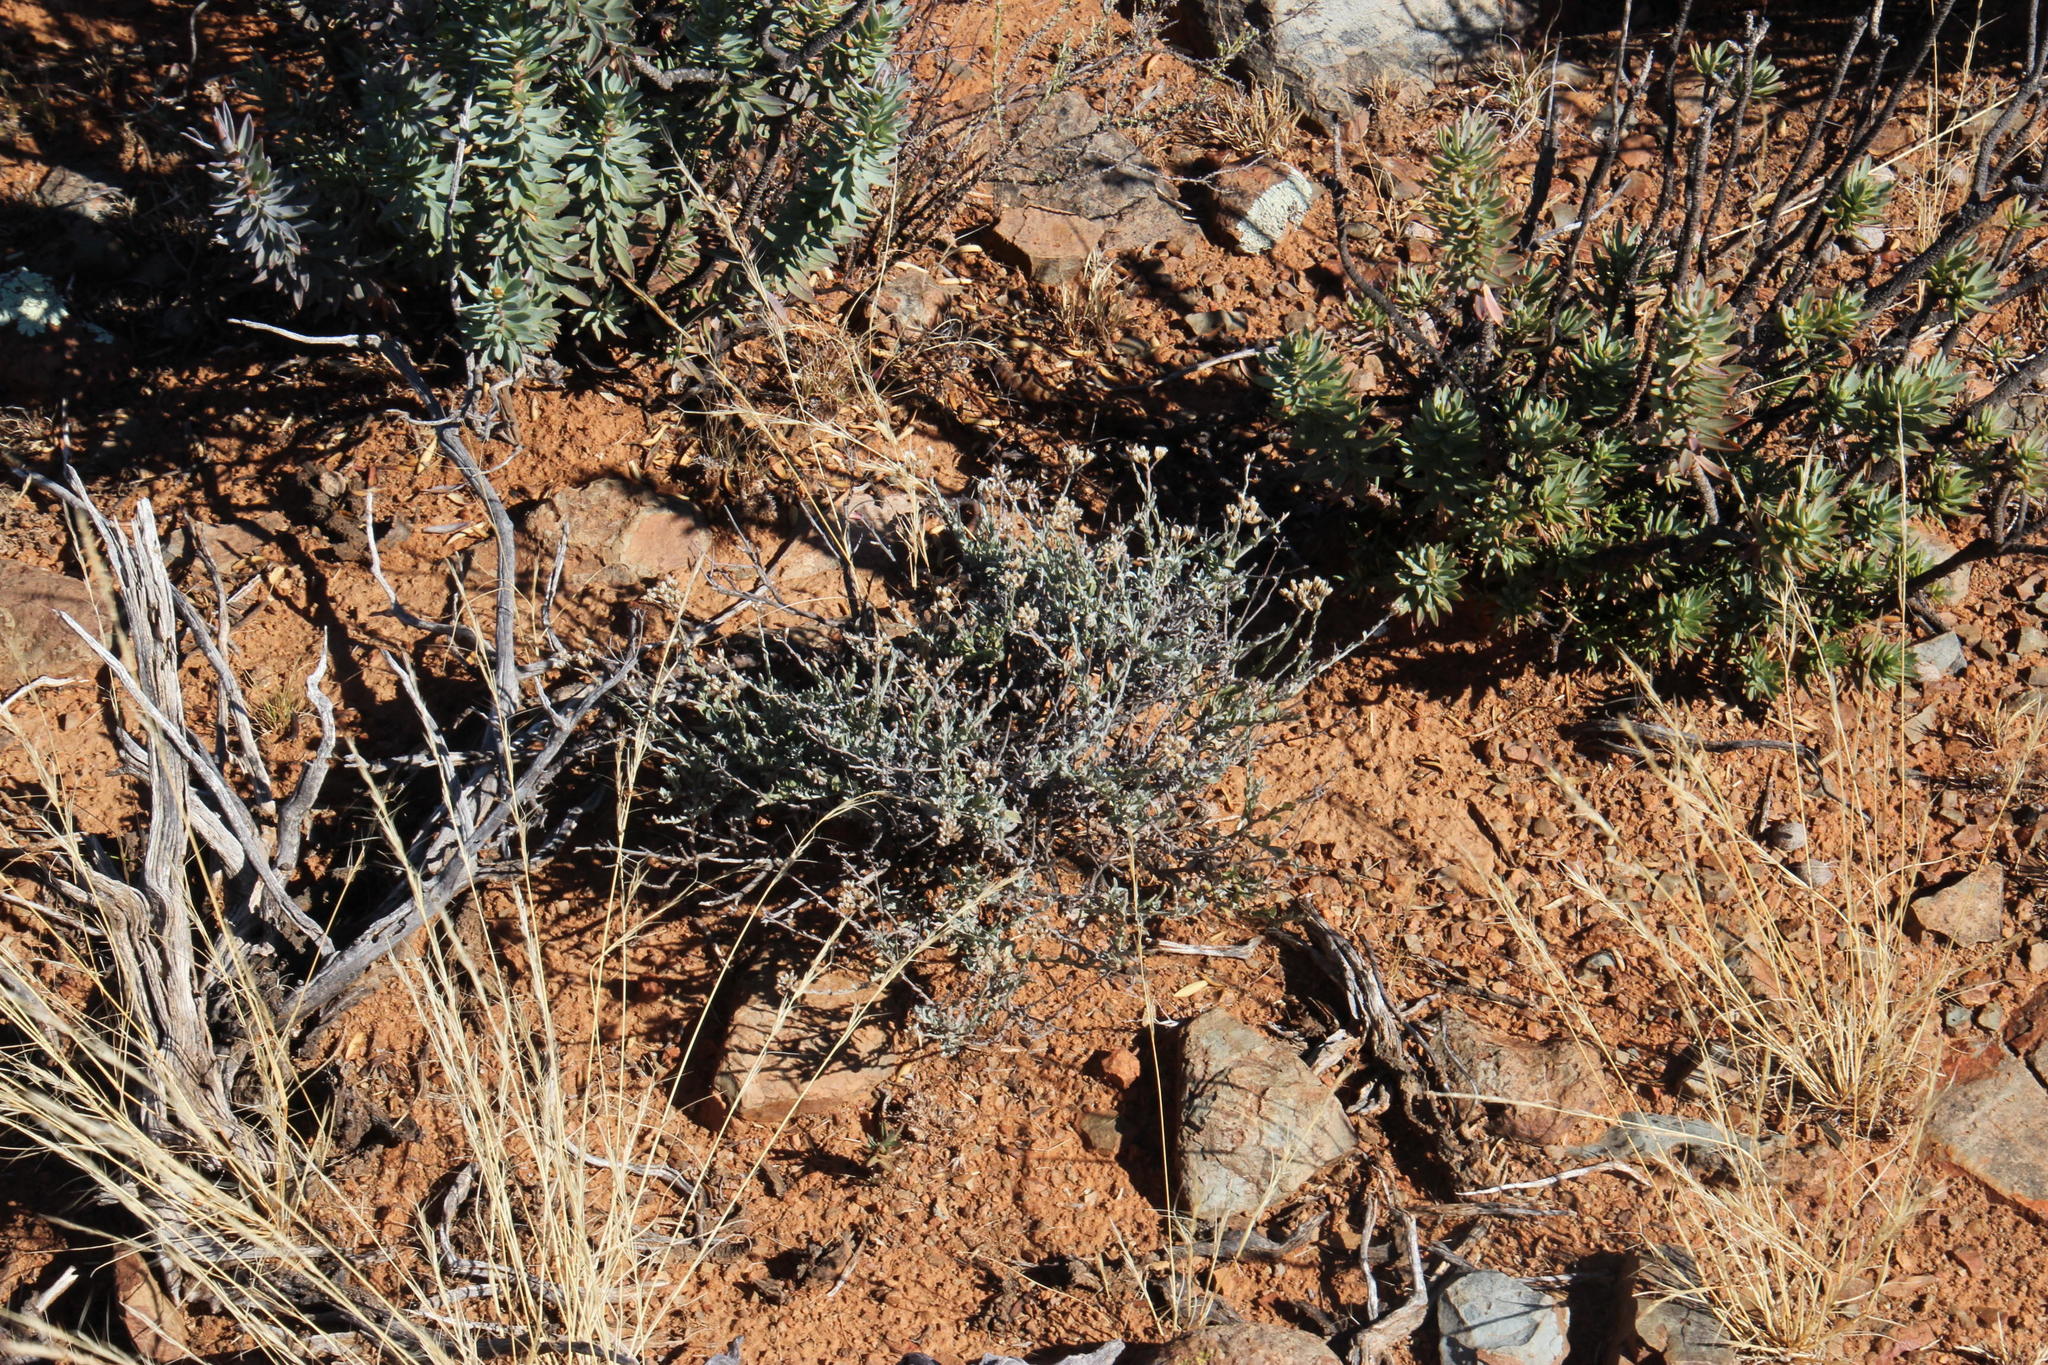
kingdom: Plantae
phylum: Tracheophyta
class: Magnoliopsida
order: Asterales
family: Asteraceae
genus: Helichrysum
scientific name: Helichrysum zeyheri
